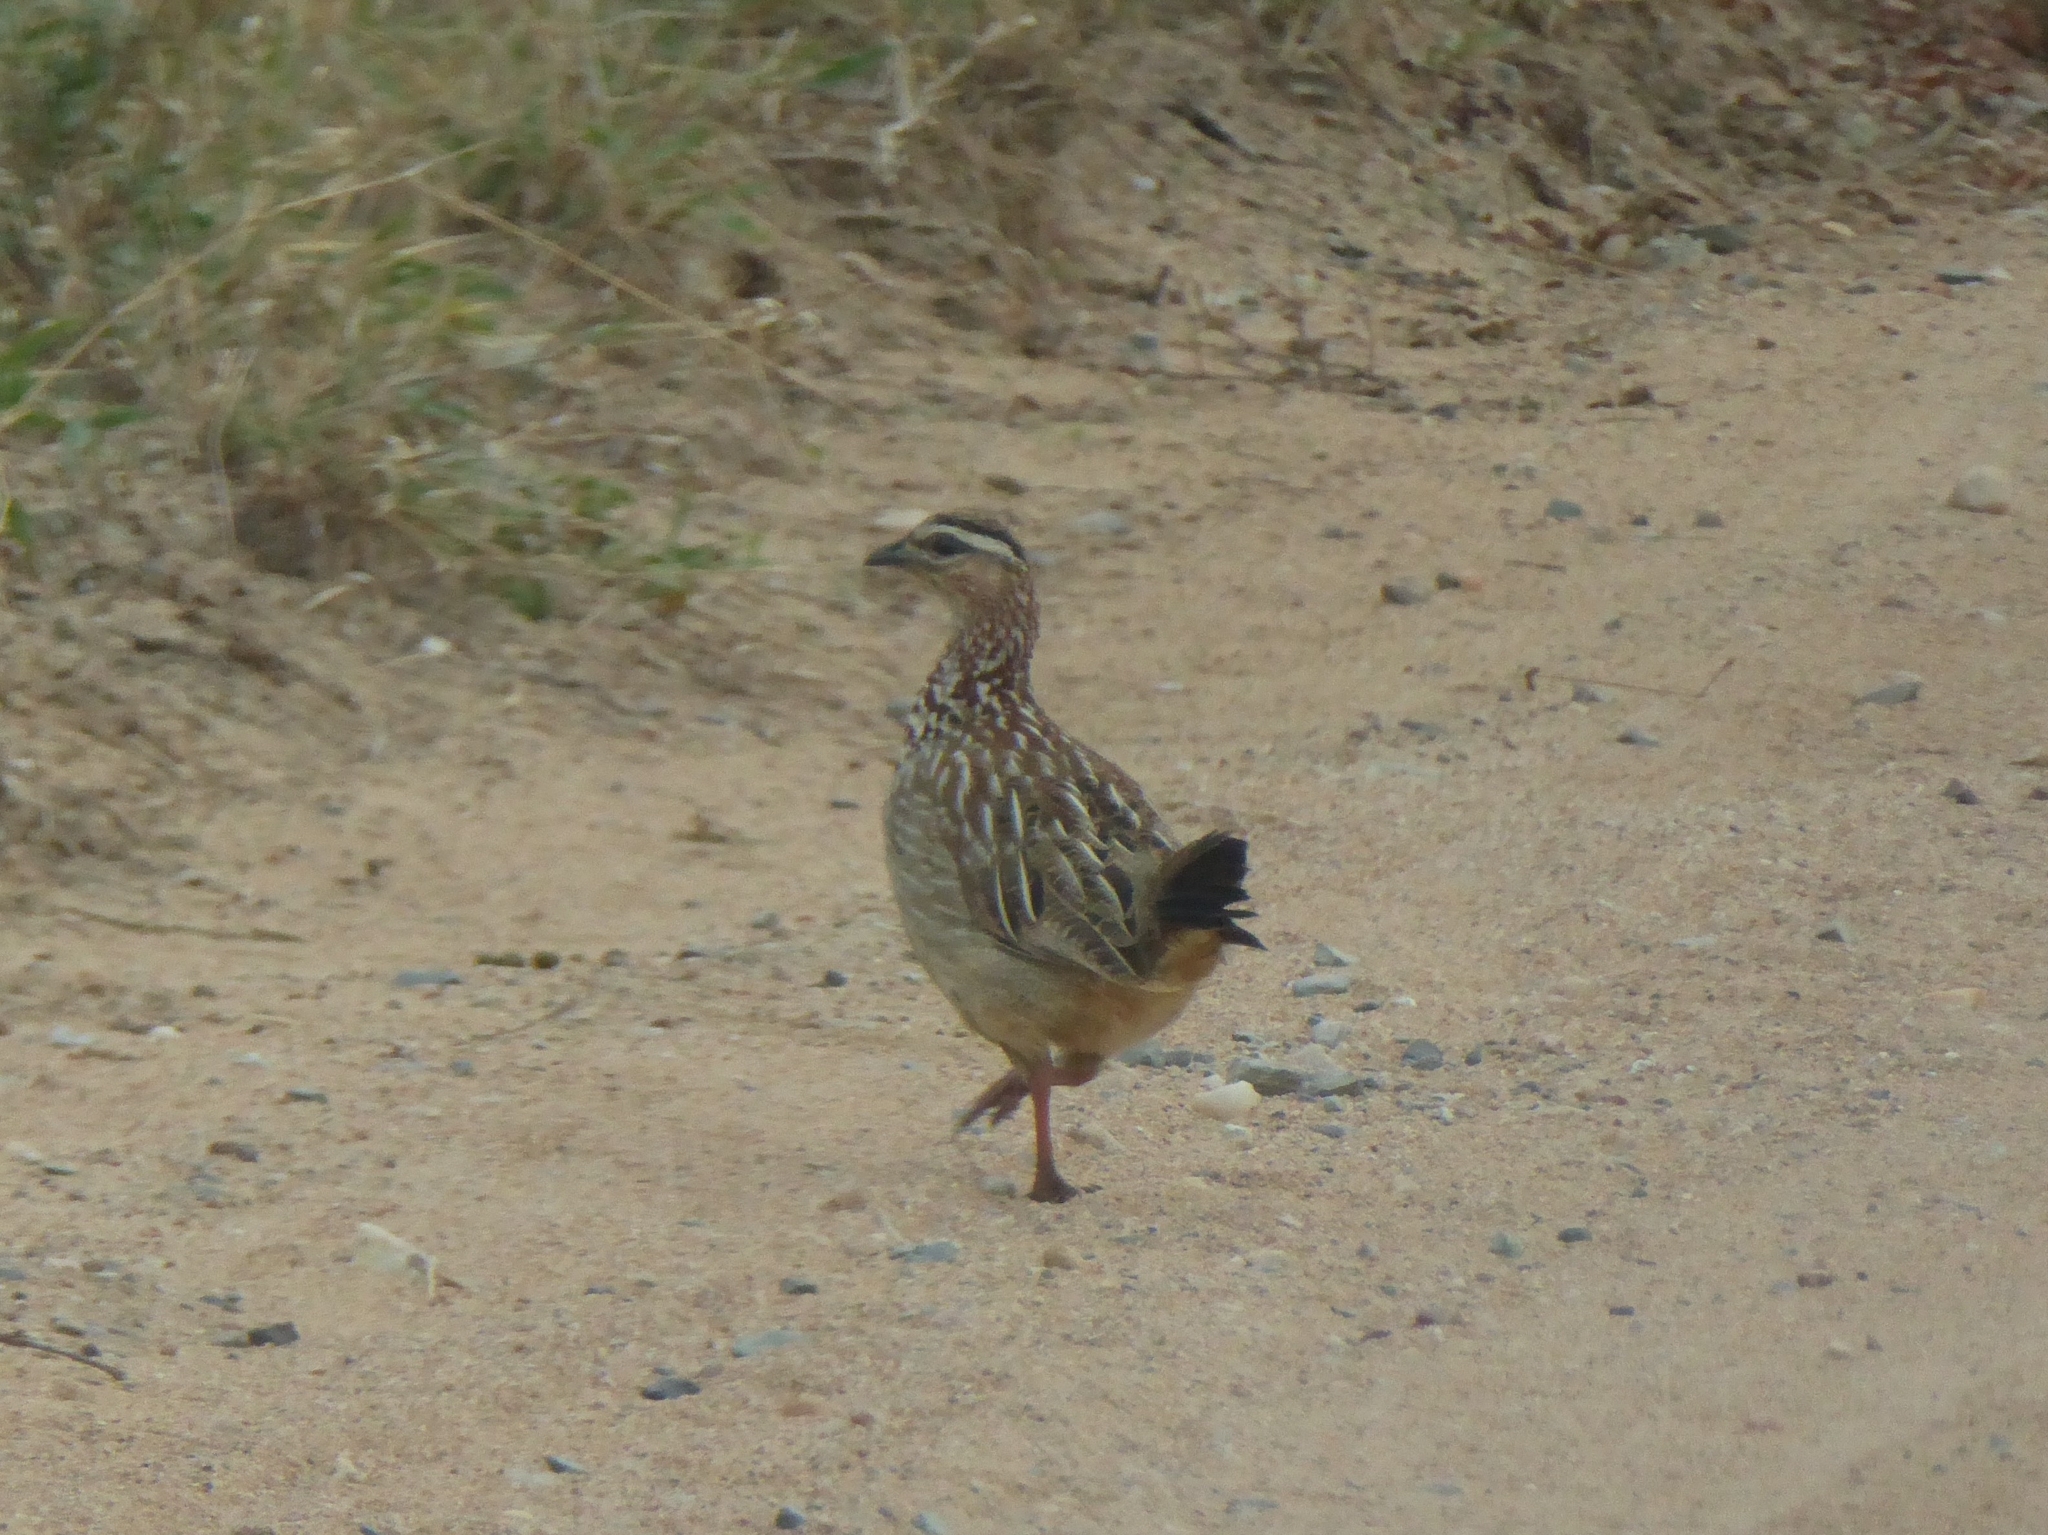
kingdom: Animalia
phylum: Chordata
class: Aves
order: Galliformes
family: Phasianidae
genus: Ortygornis
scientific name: Ortygornis sephaena
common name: Crested francolin
